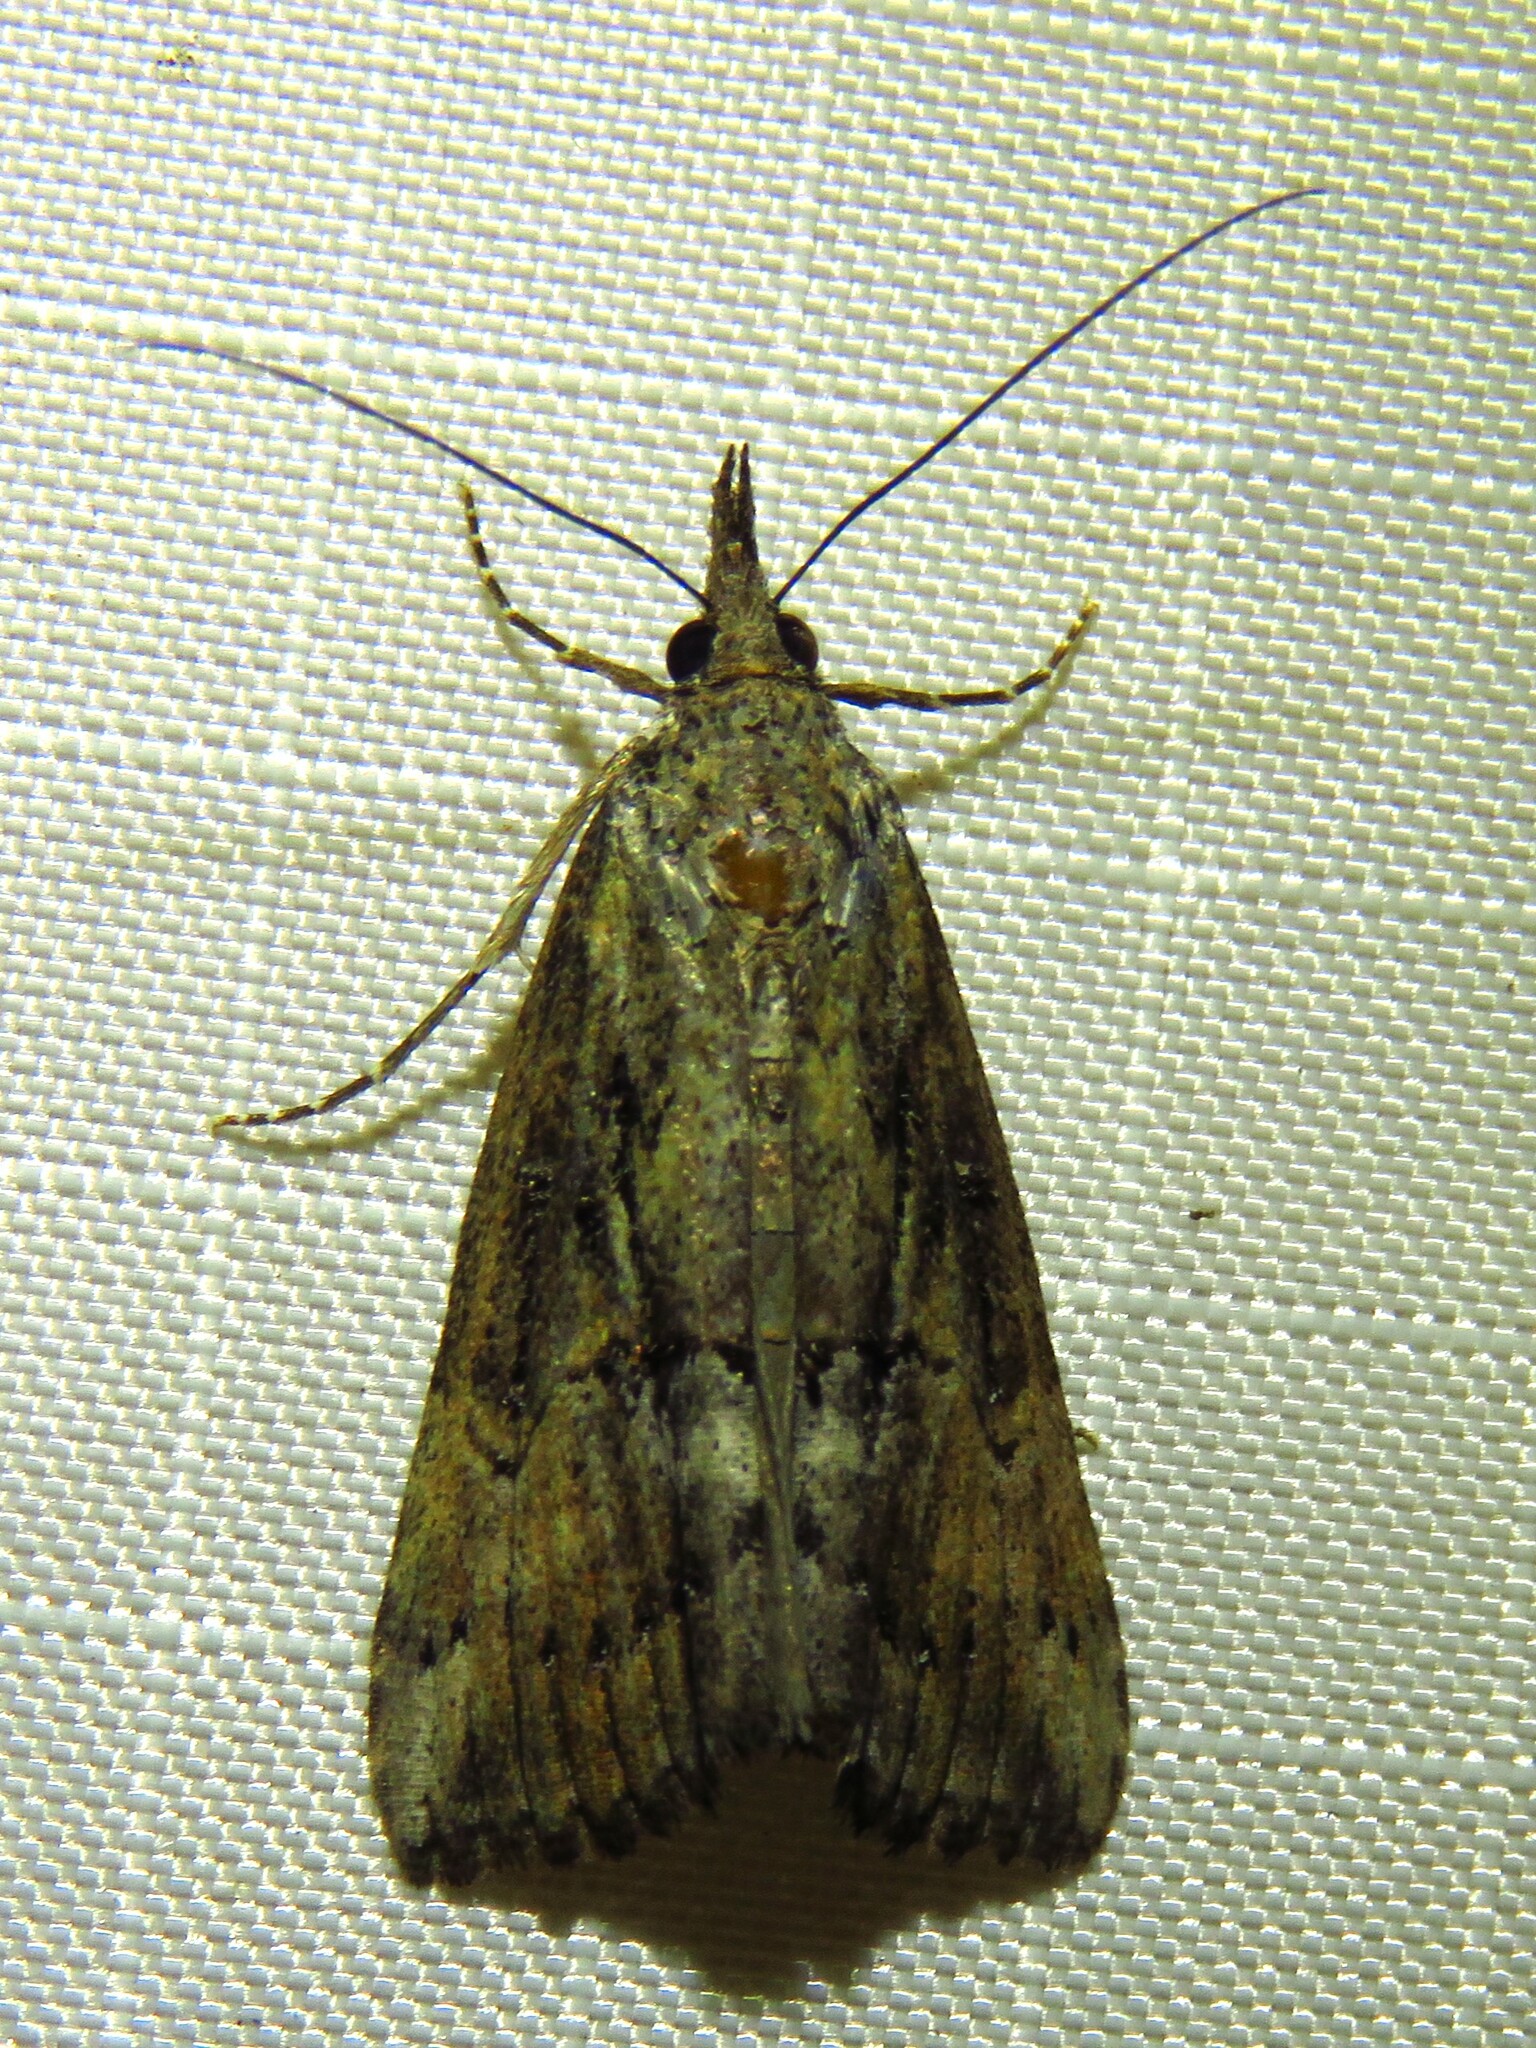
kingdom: Animalia
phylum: Arthropoda
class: Insecta
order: Lepidoptera
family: Erebidae
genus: Hypena
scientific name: Hypena scabra
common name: Green cloverworm
